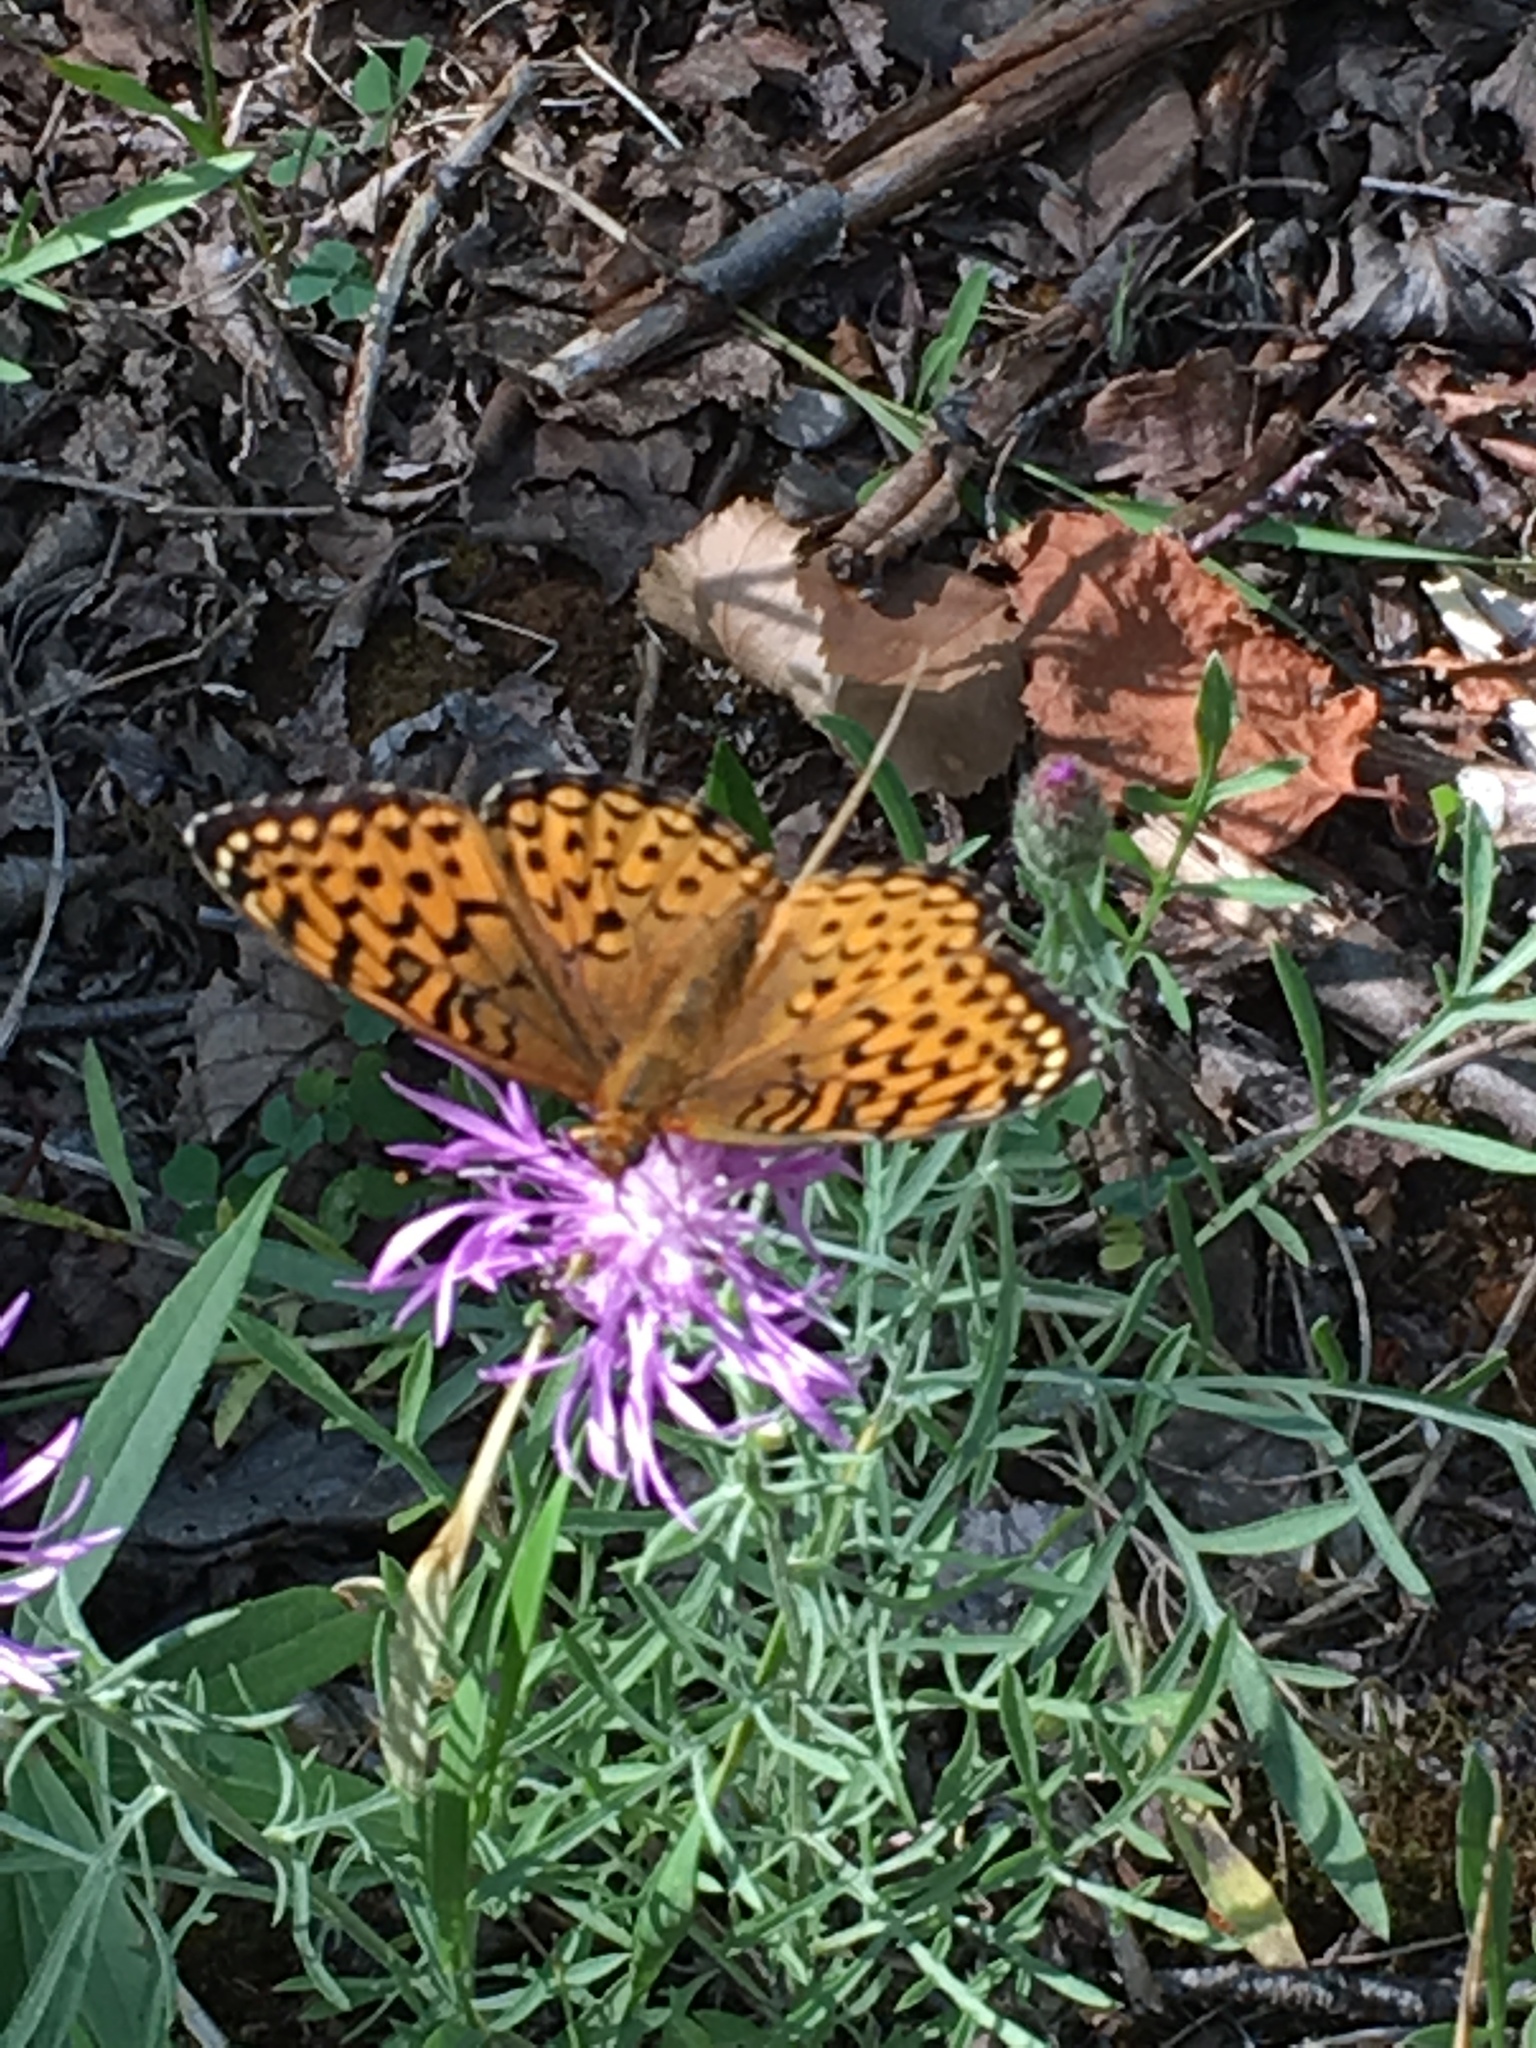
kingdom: Animalia
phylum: Arthropoda
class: Insecta
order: Lepidoptera
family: Nymphalidae
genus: Speyeria
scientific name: Speyeria atlantis
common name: Atlantis fritillary
